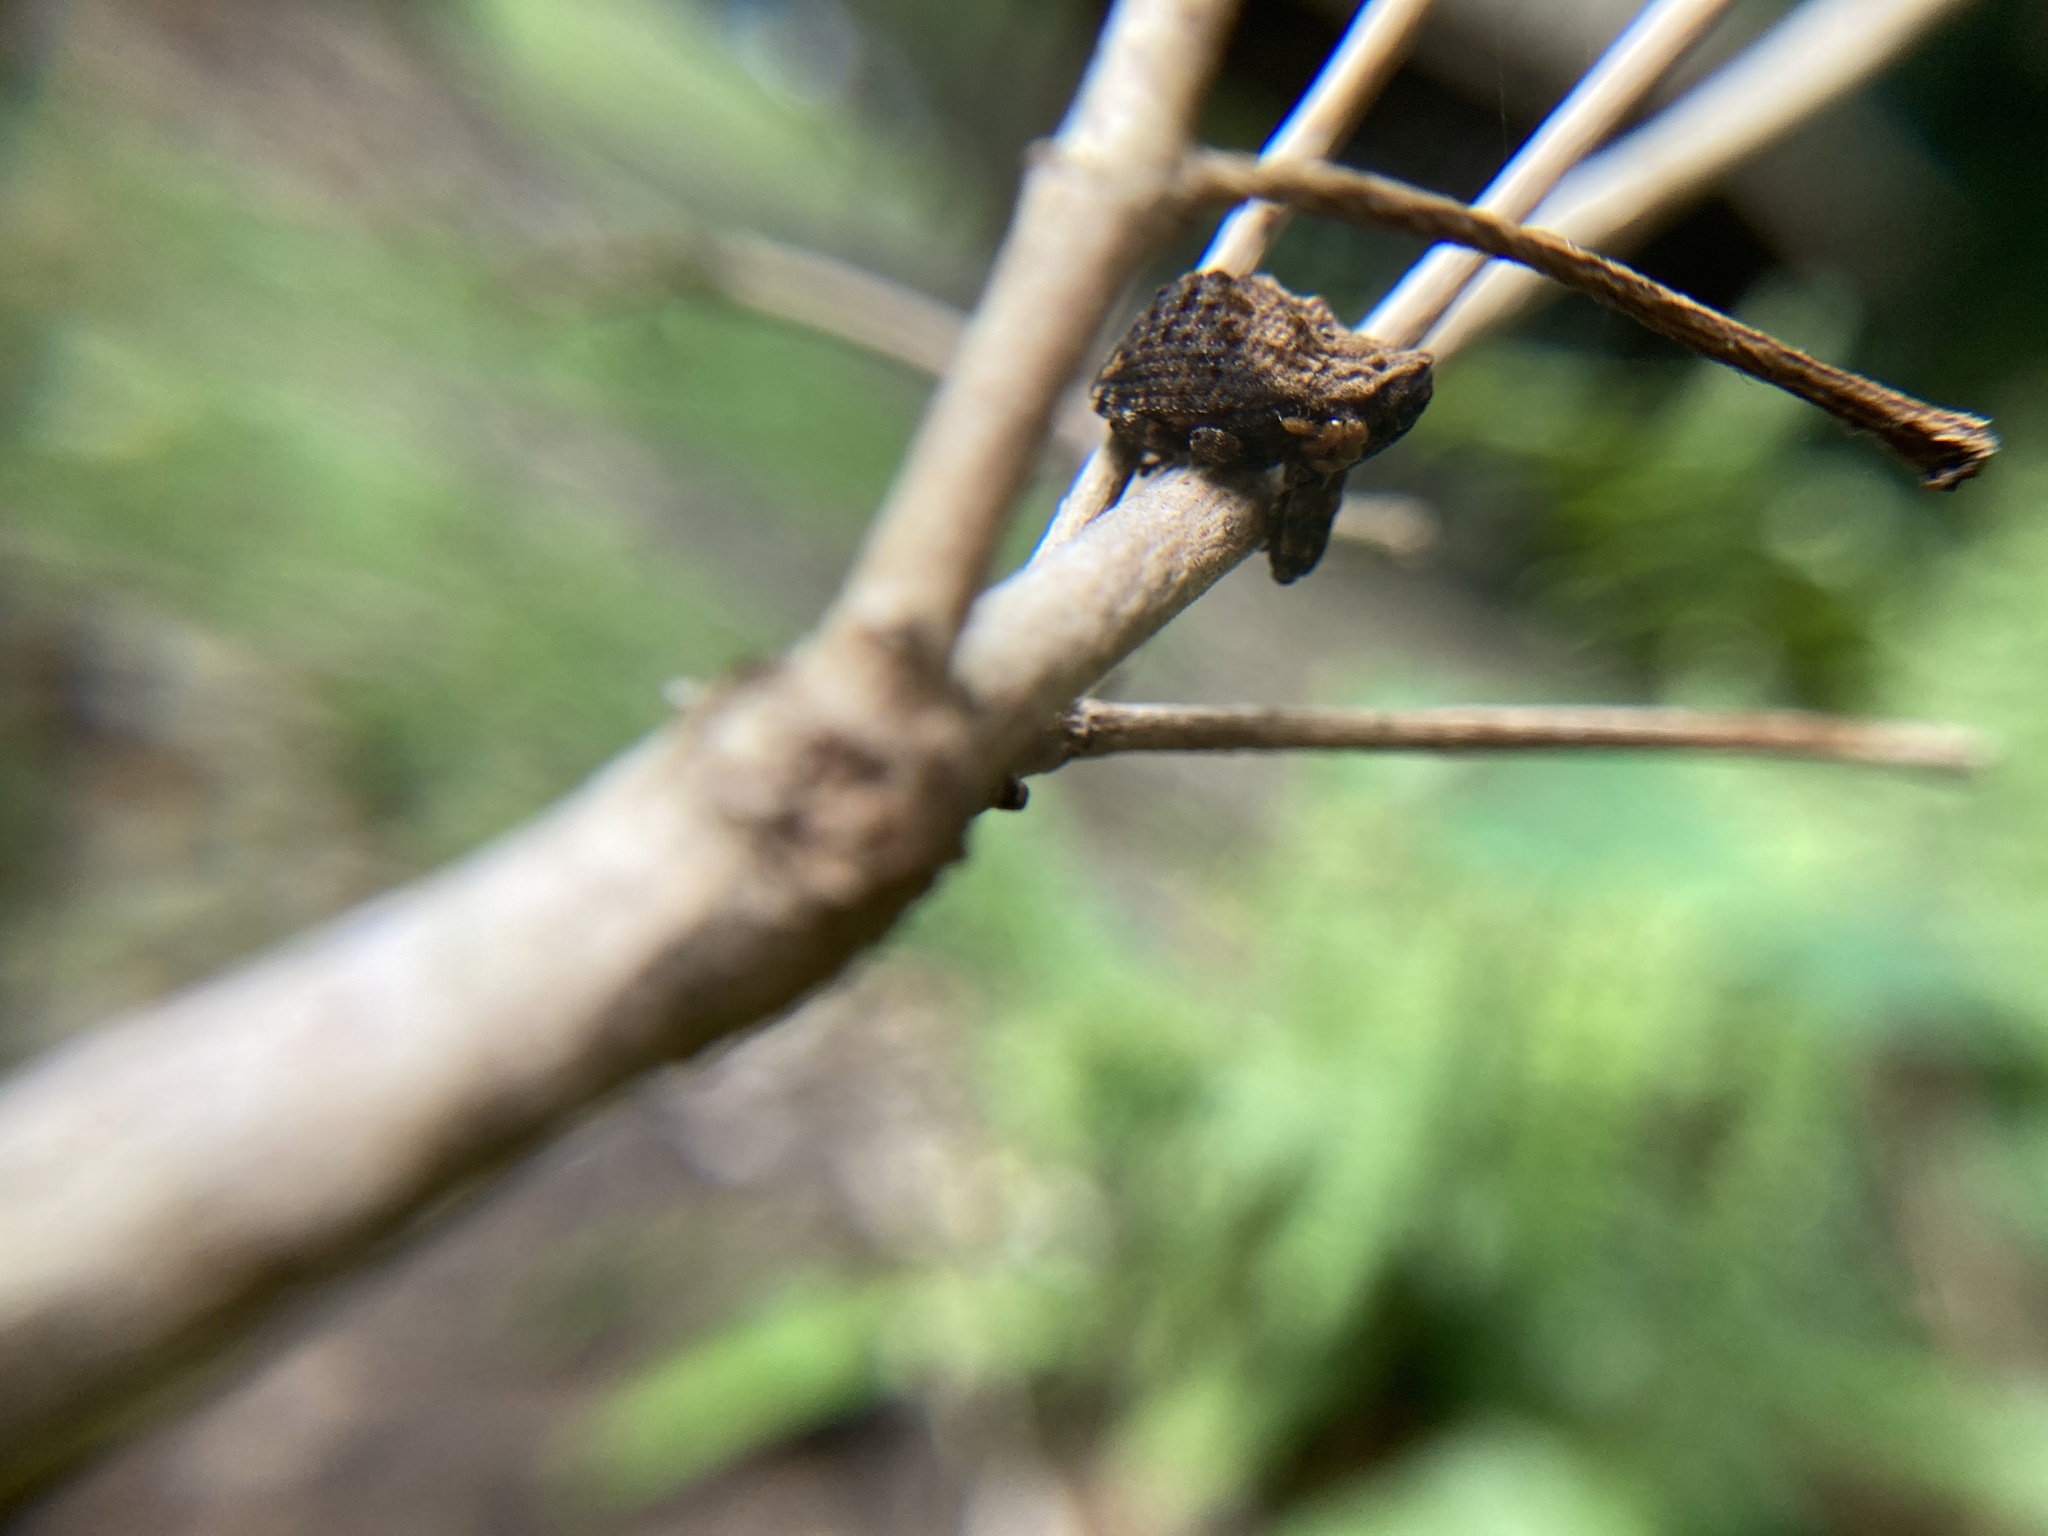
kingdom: Animalia
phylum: Arthropoda
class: Insecta
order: Coleoptera
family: Curculionidae
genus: Blepiarda
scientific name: Blepiarda undulata
